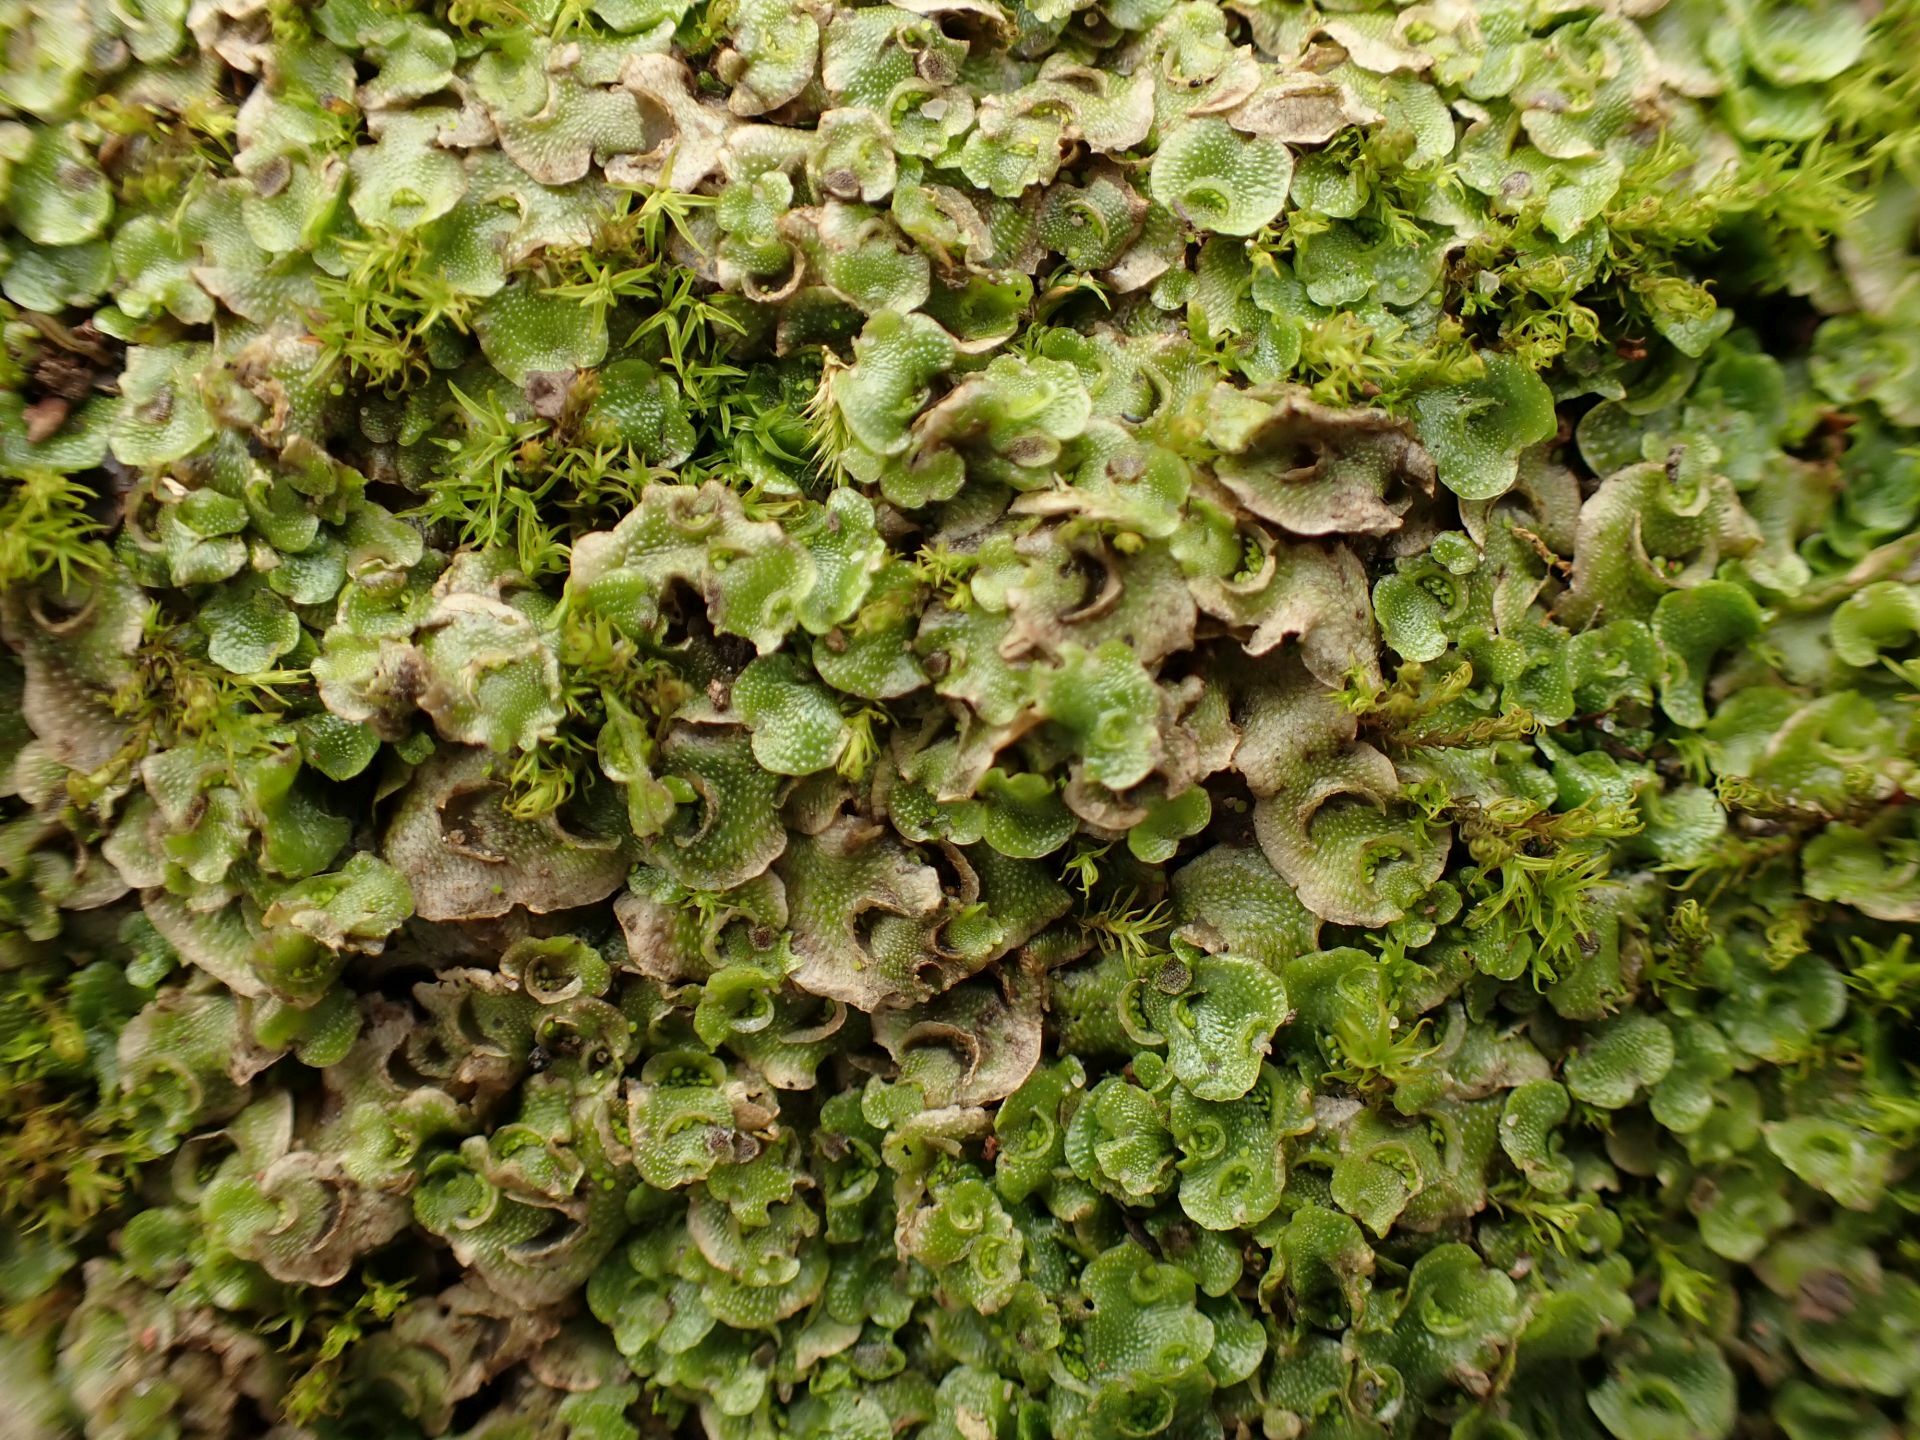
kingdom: Plantae
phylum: Marchantiophyta
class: Marchantiopsida
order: Lunulariales
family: Lunulariaceae
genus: Lunularia
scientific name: Lunularia cruciata
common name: Crescent-cup liverwort
